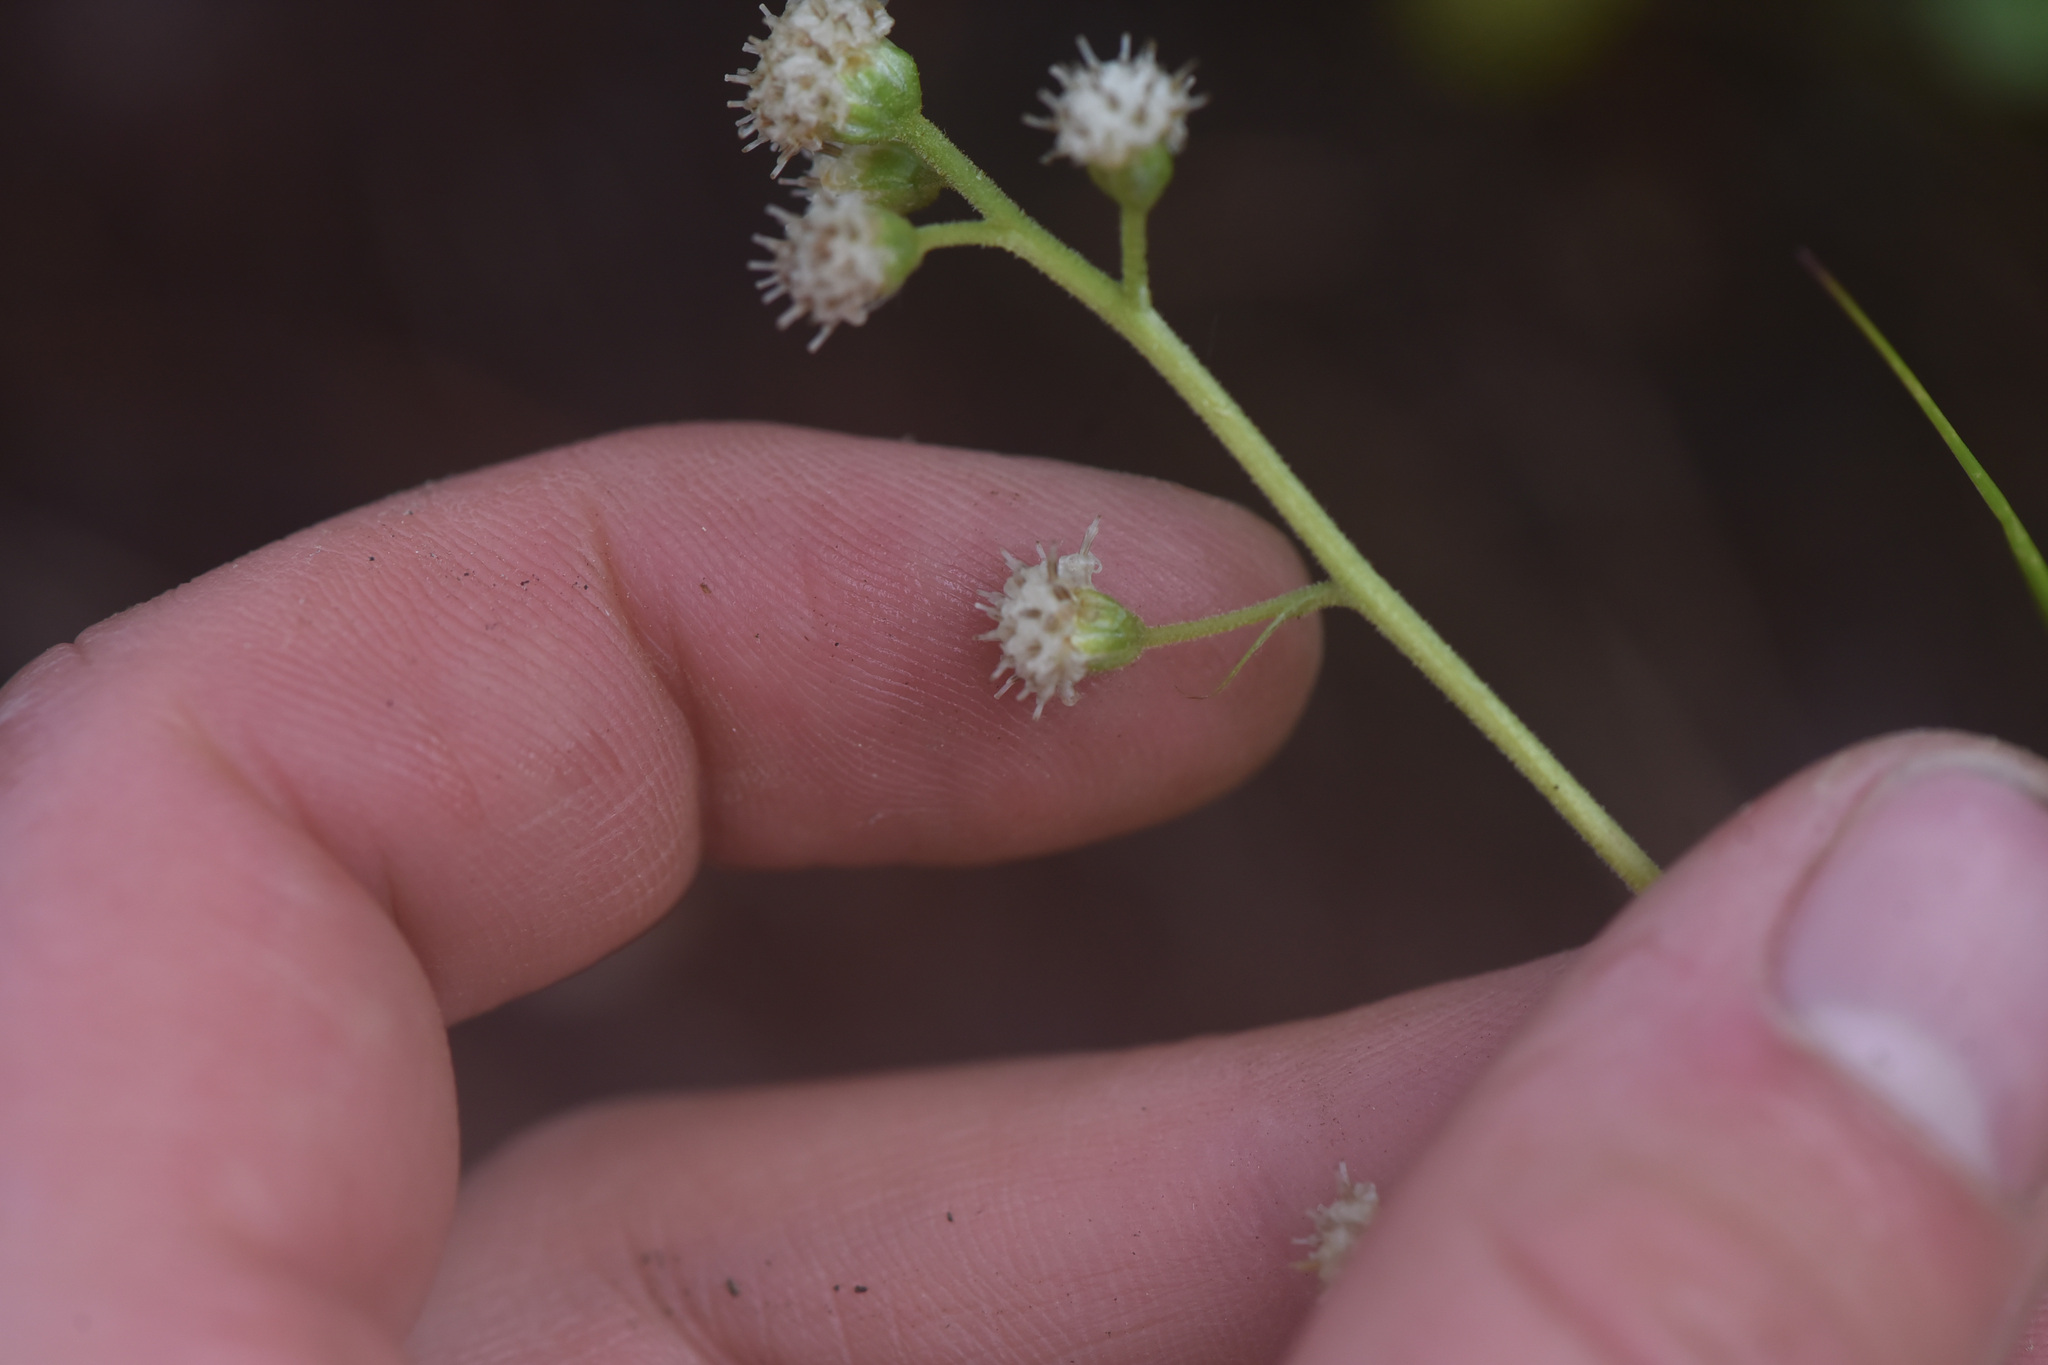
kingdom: Plantae
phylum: Tracheophyta
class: Magnoliopsida
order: Asterales
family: Asteraceae
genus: Antennaria
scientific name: Antennaria racemosa
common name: Racemose pussytoes
